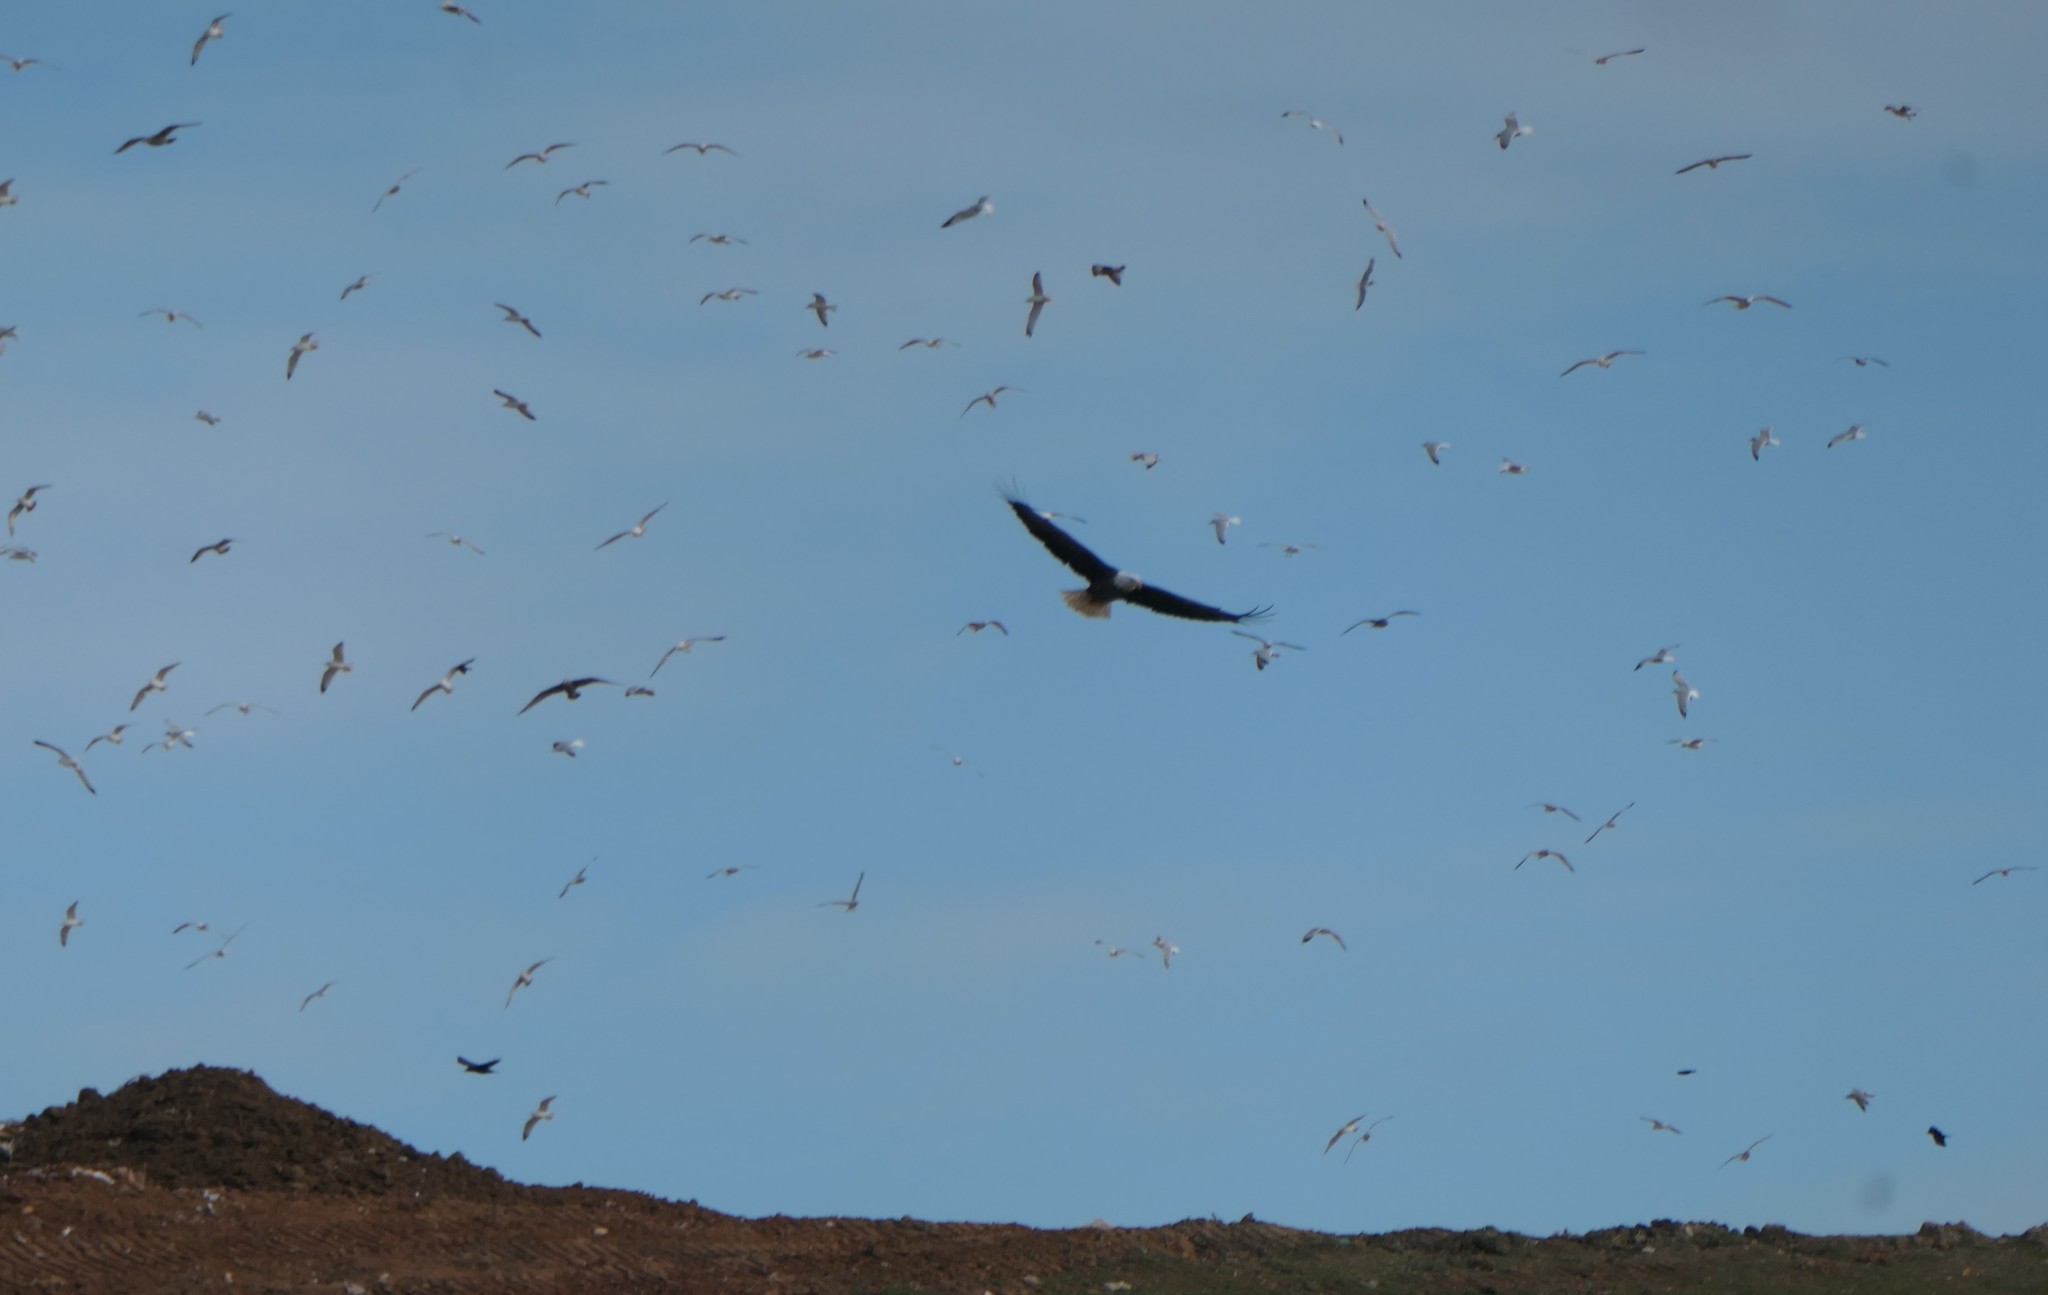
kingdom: Animalia
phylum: Chordata
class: Aves
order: Accipitriformes
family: Accipitridae
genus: Haliaeetus
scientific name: Haliaeetus leucocephalus
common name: Bald eagle
